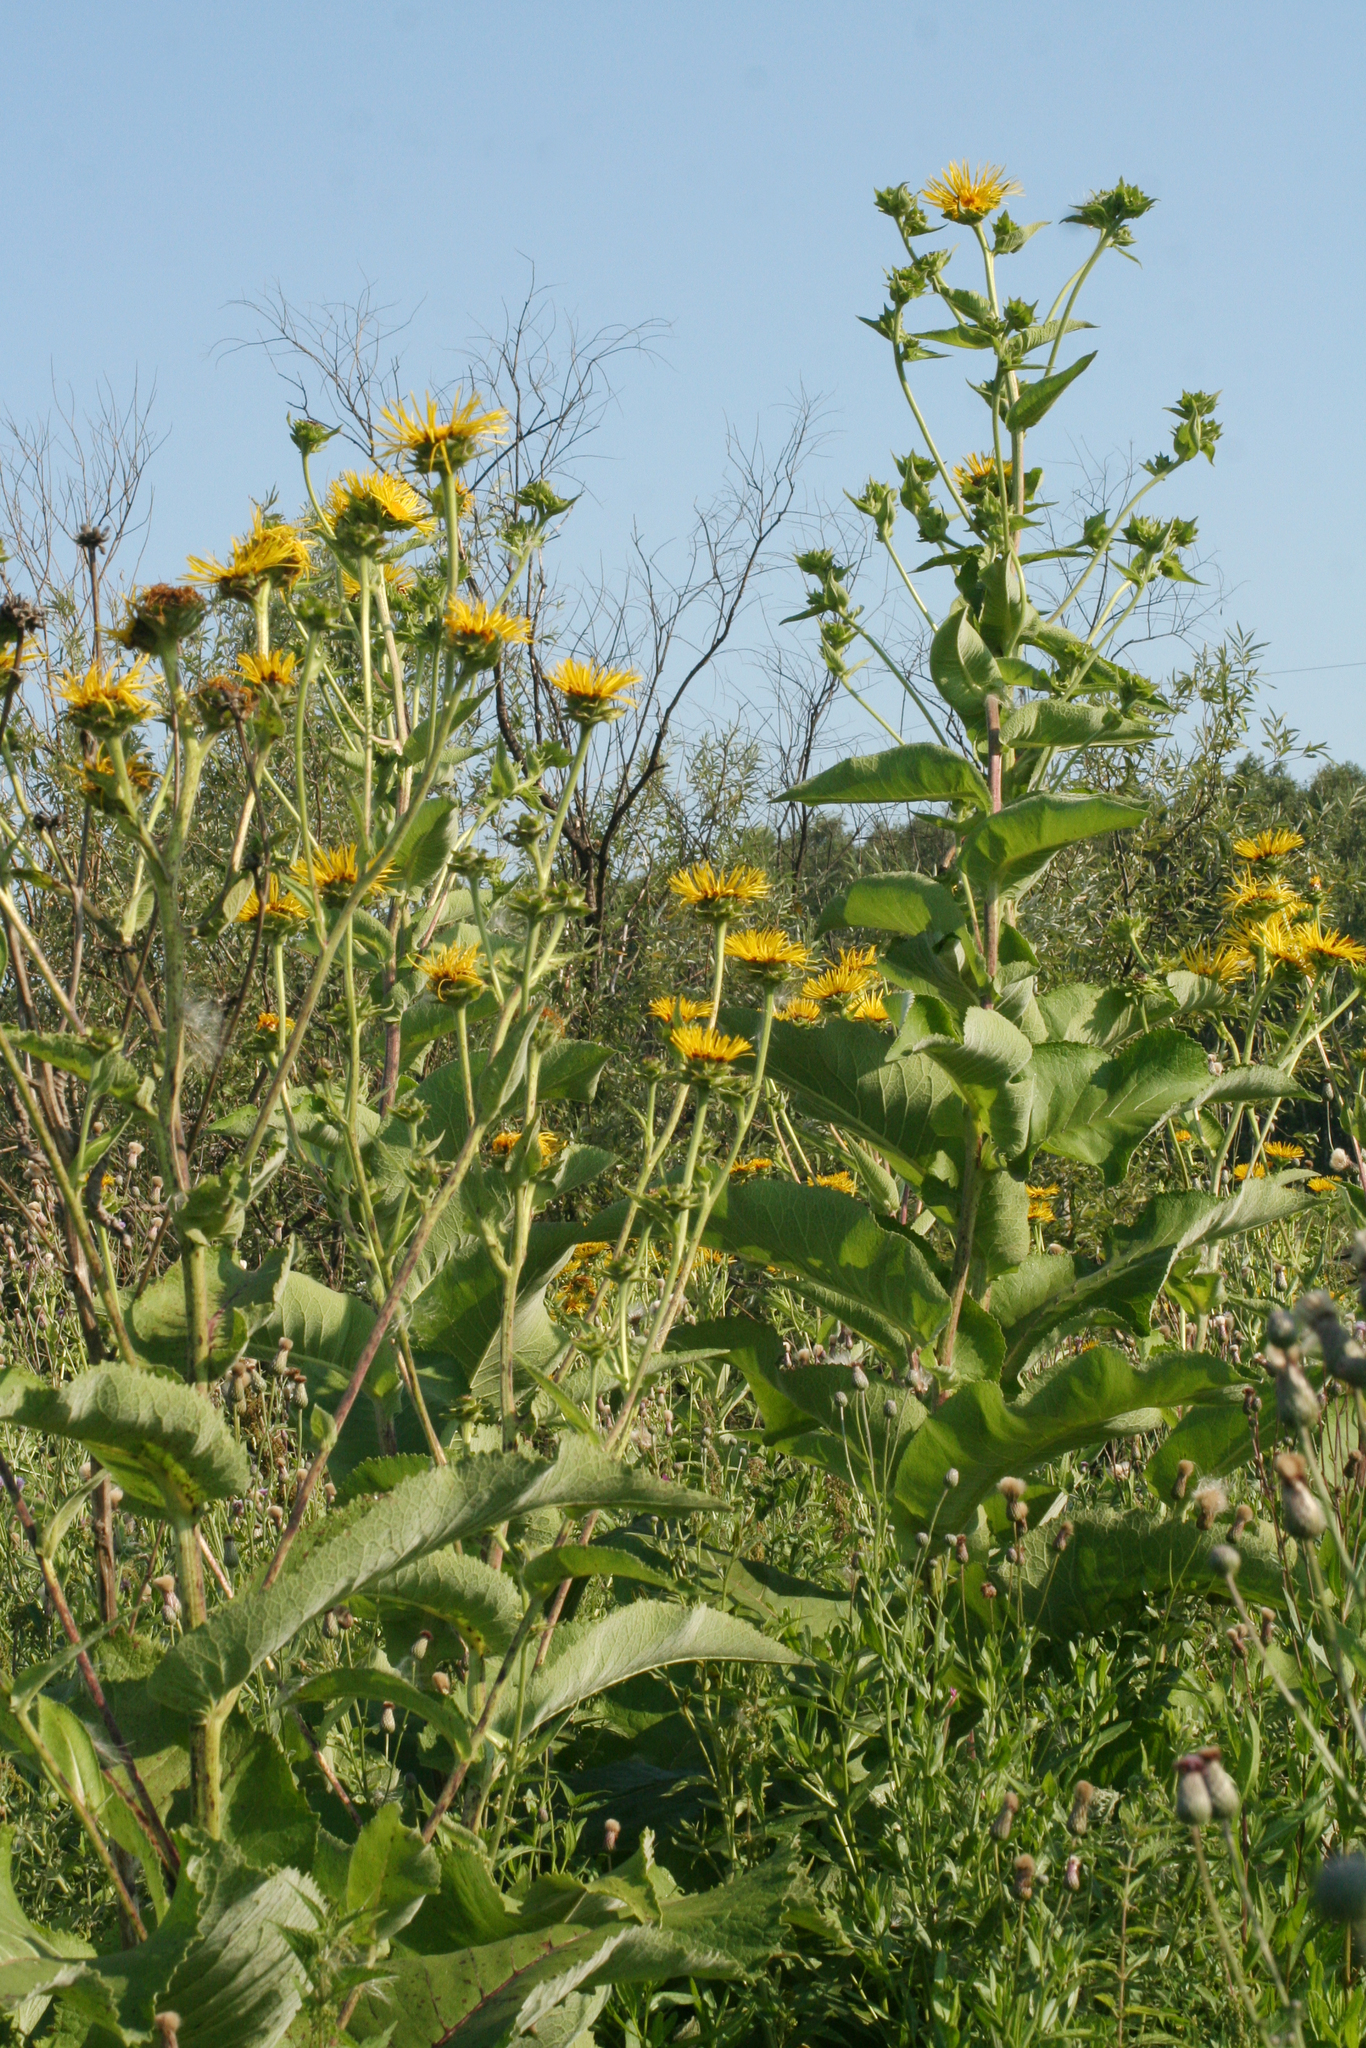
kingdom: Plantae
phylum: Tracheophyta
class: Magnoliopsida
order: Asterales
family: Asteraceae
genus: Inula
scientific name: Inula helenium
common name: Elecampane
